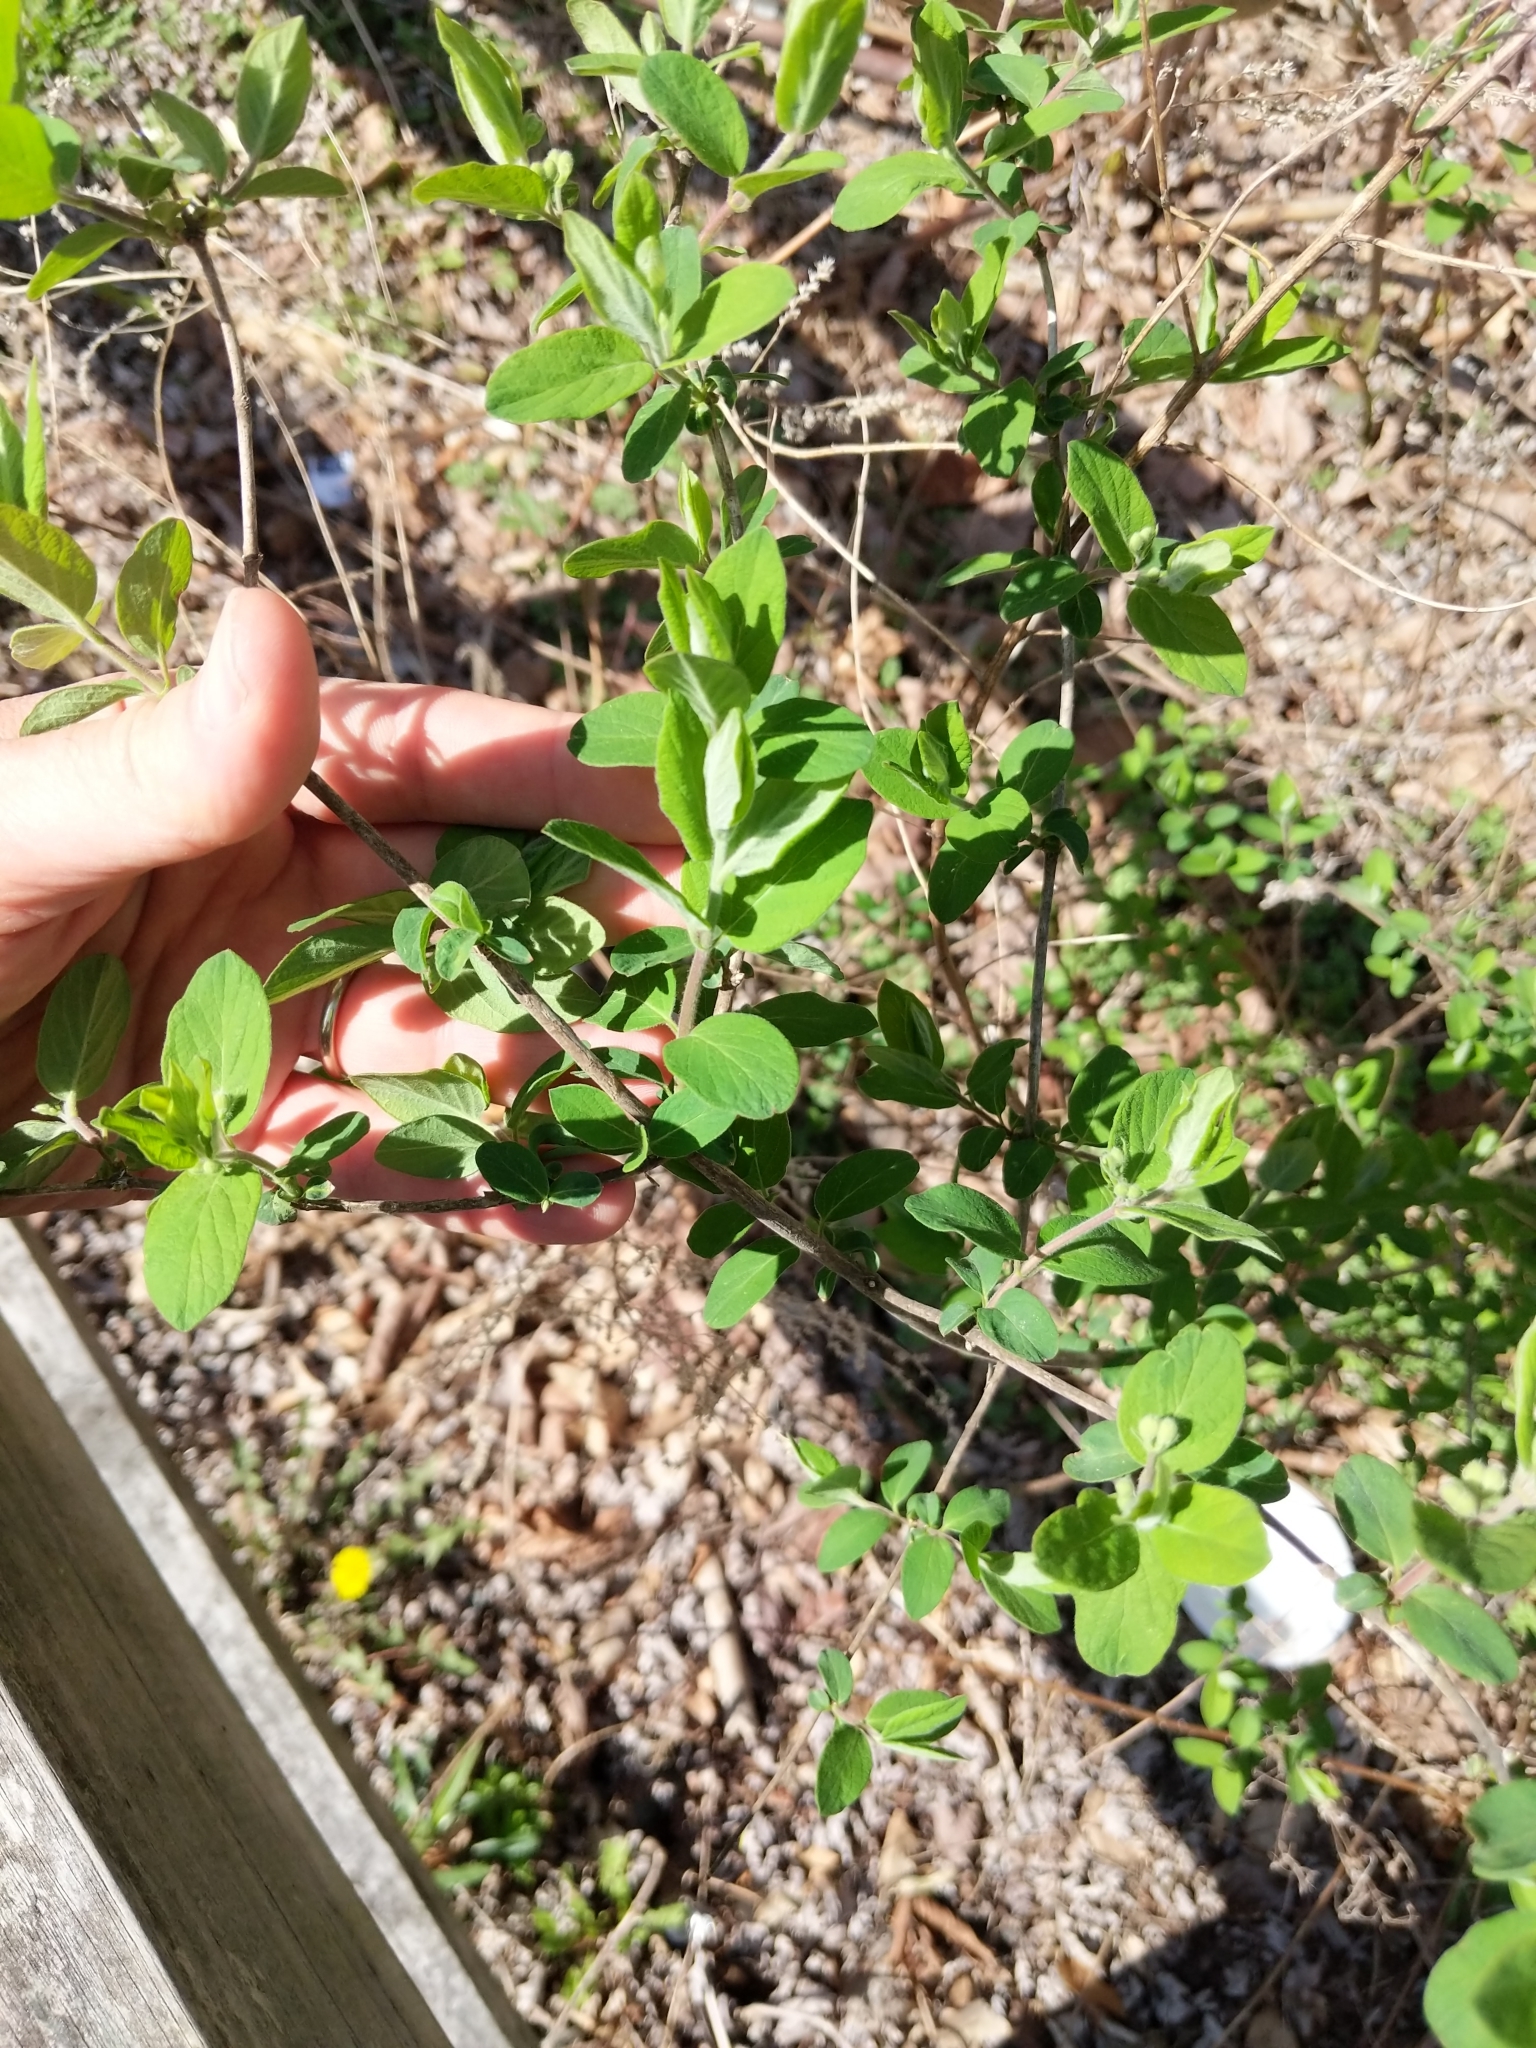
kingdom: Plantae
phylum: Tracheophyta
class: Magnoliopsida
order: Dipsacales
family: Caprifoliaceae
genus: Lonicera
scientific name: Lonicera
